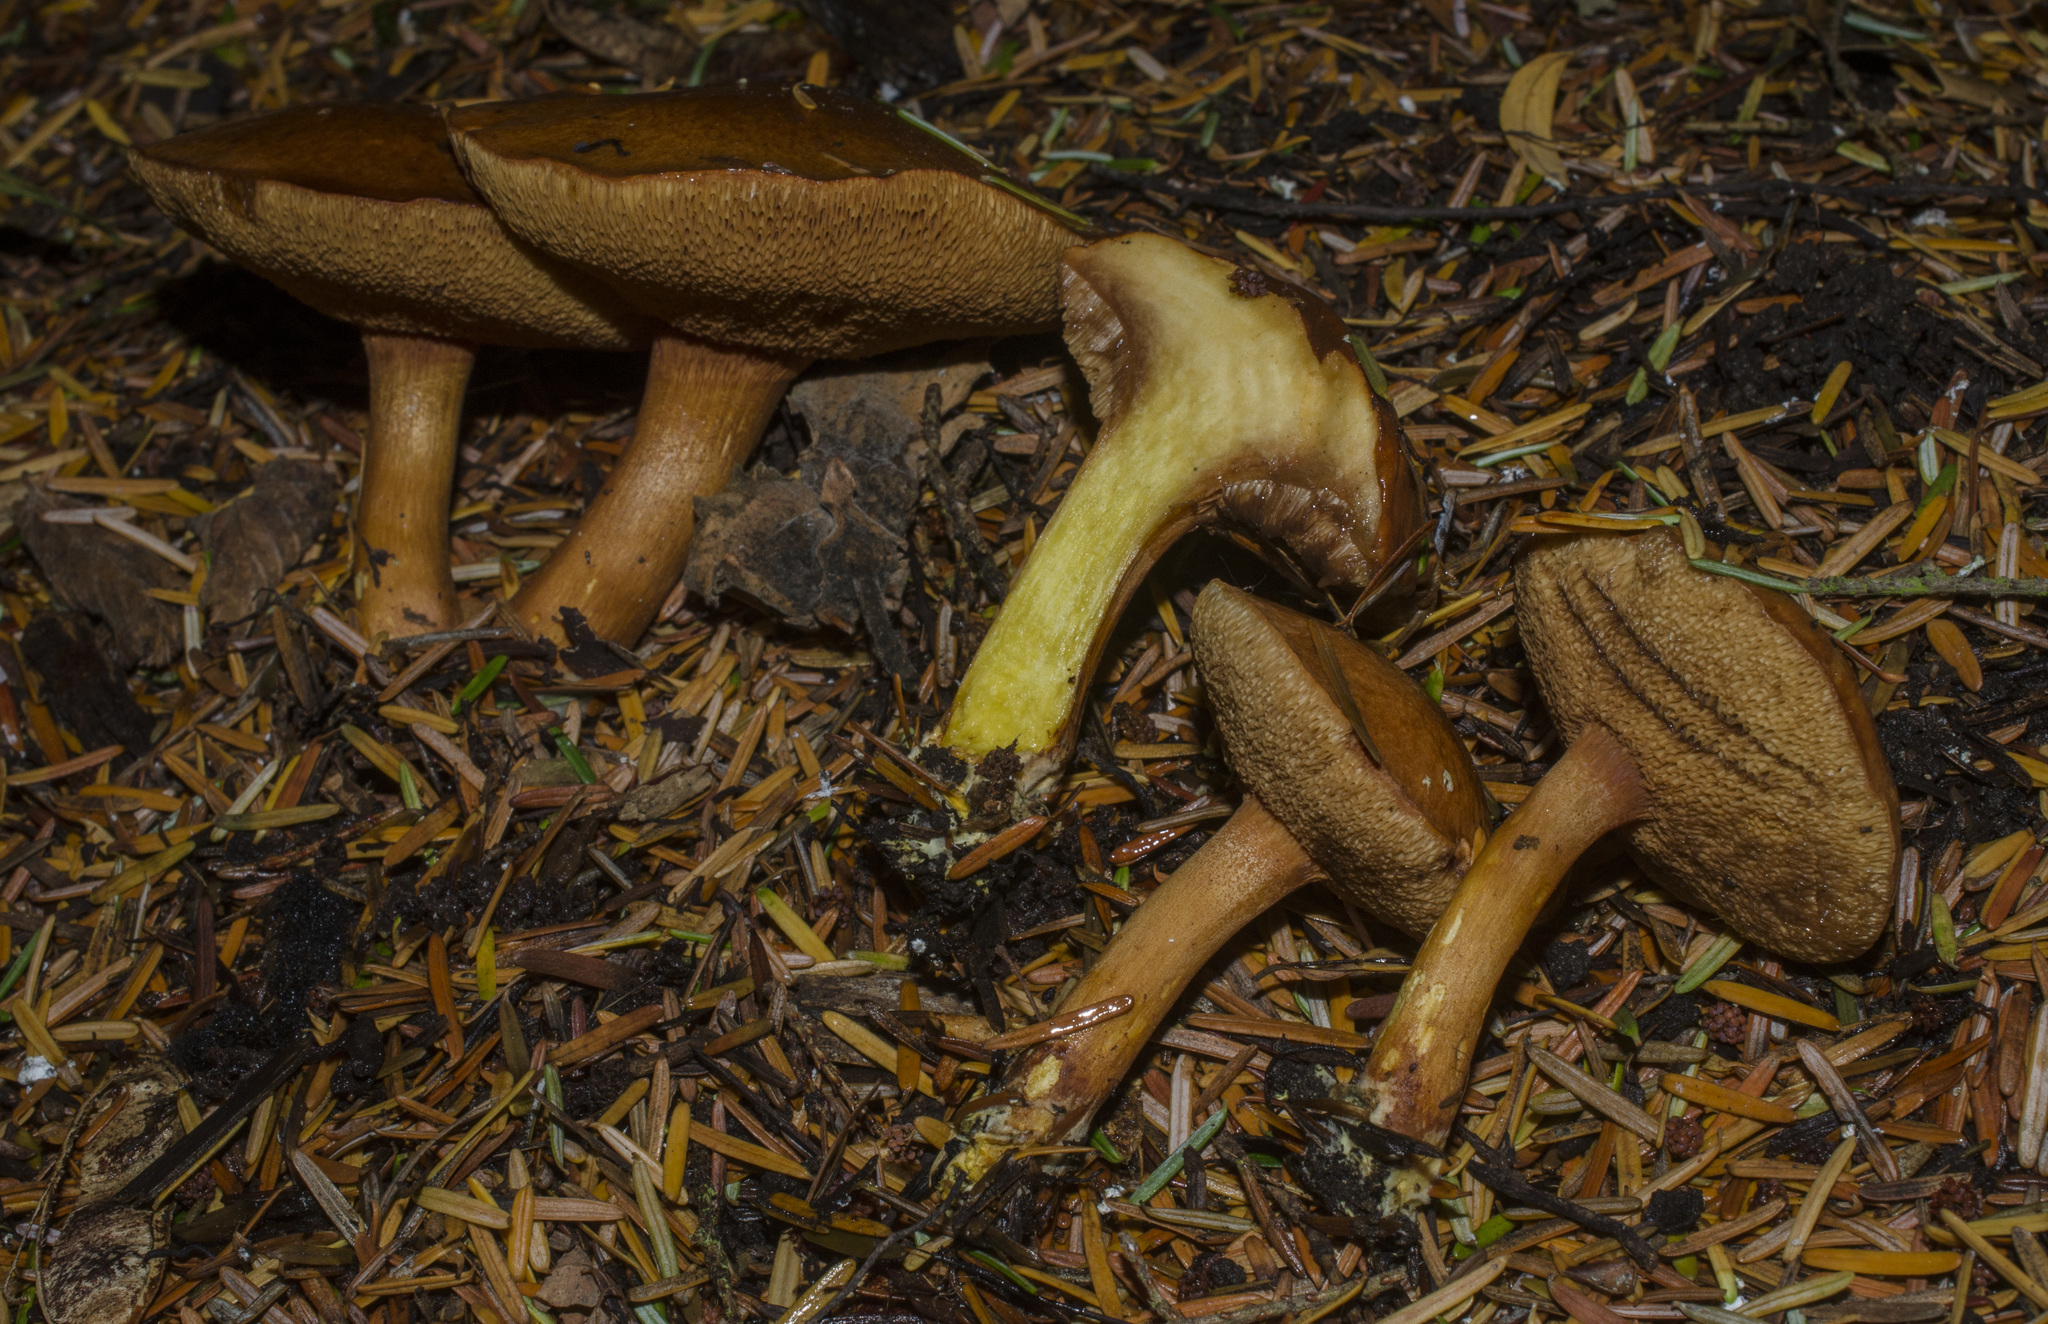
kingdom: Fungi
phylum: Basidiomycota
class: Agaricomycetes
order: Boletales
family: Boletaceae
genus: Chalciporus
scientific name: Chalciporus piperatus
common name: Peppery bolete
